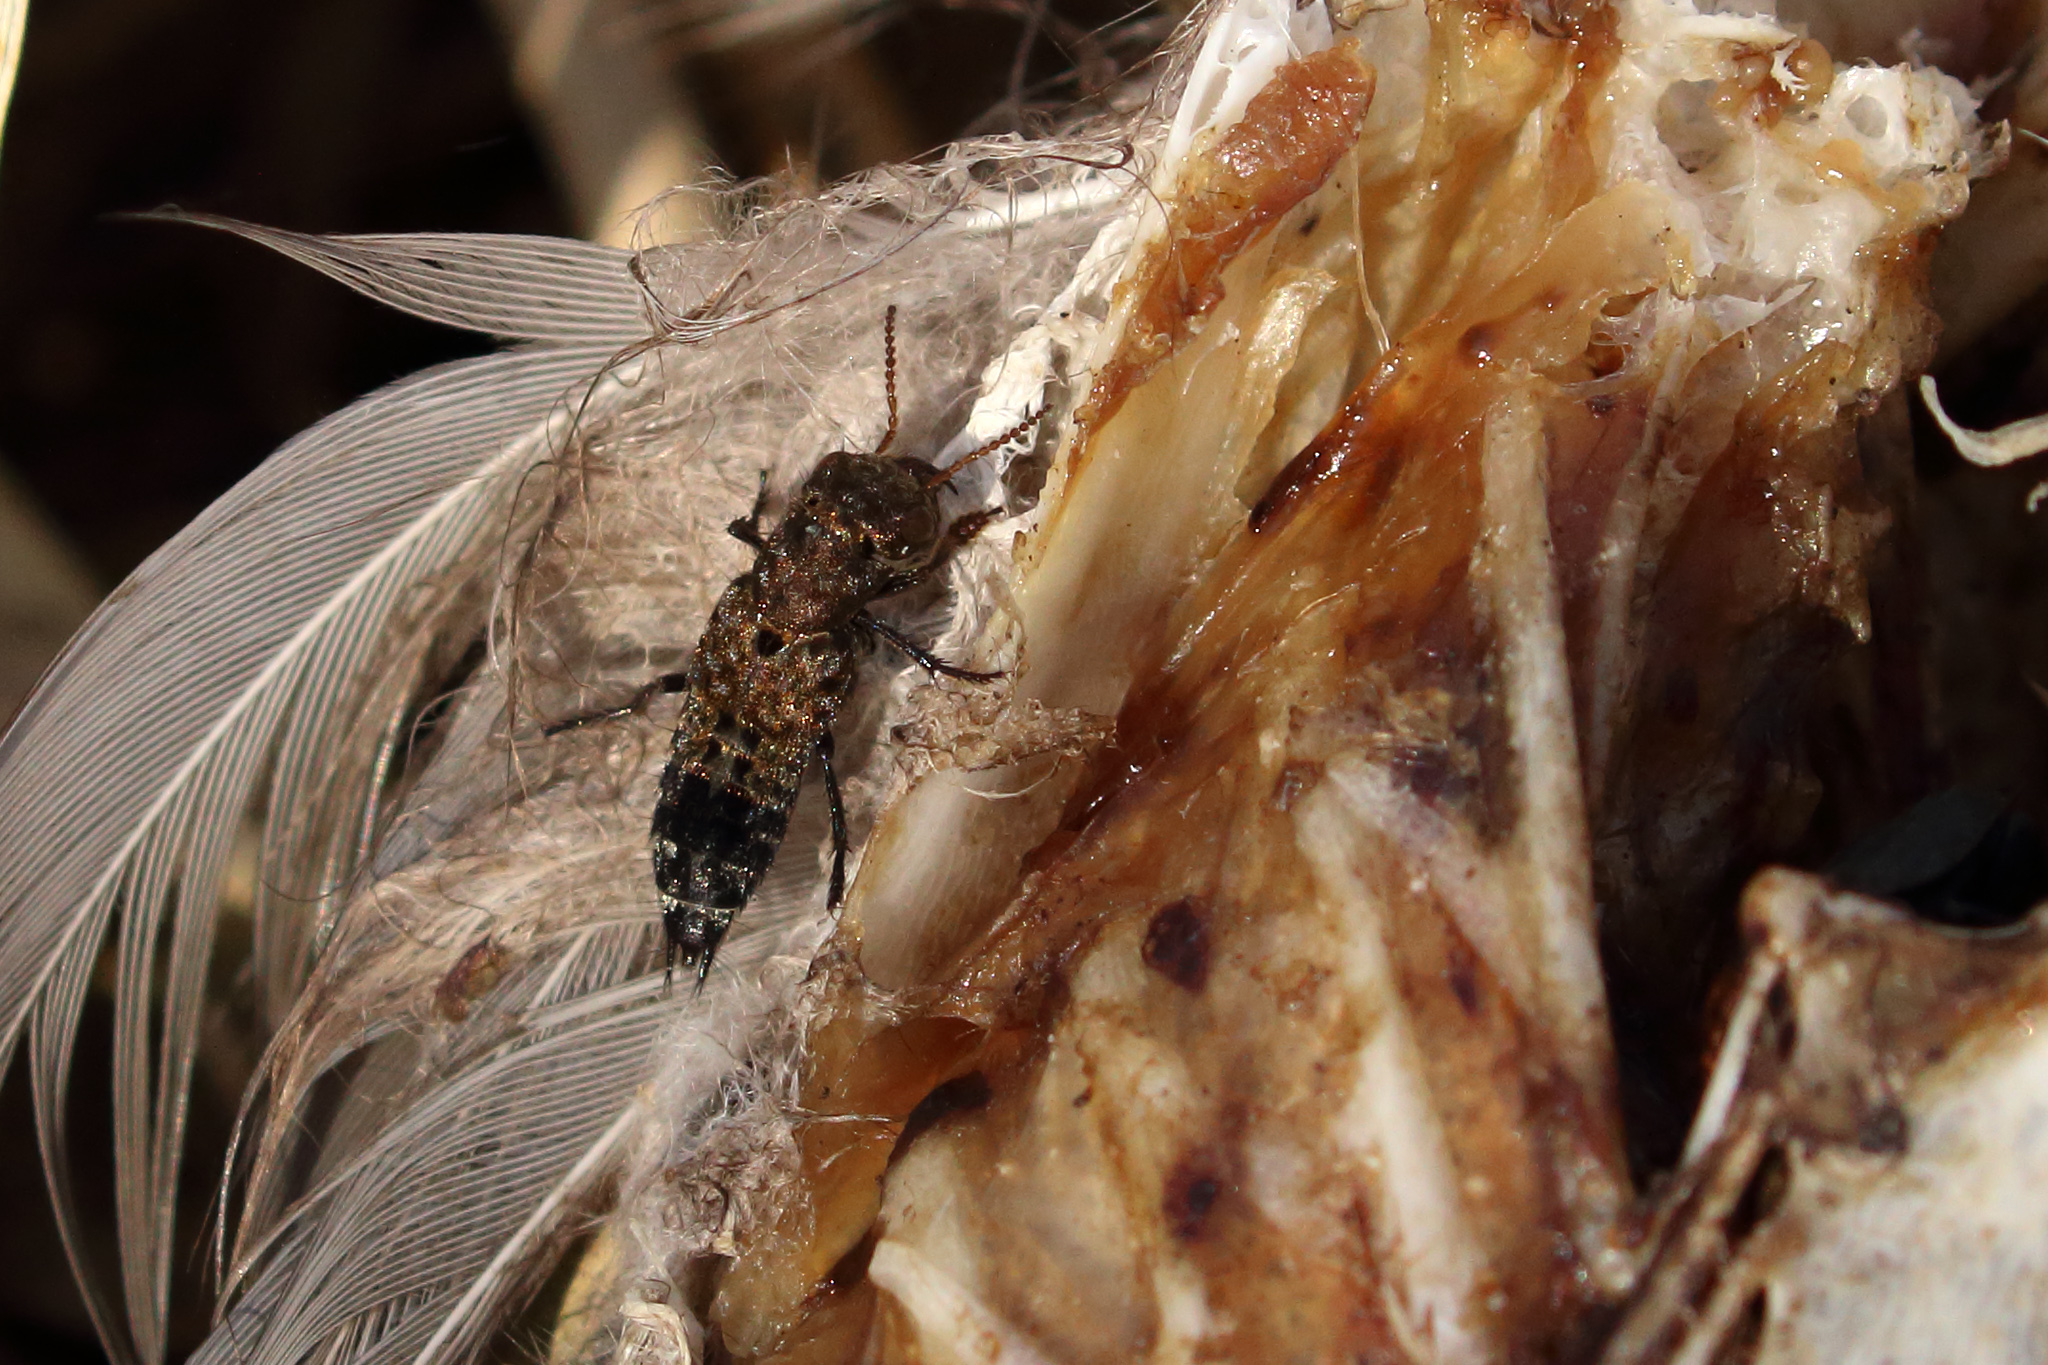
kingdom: Animalia
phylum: Arthropoda
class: Insecta
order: Coleoptera
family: Staphylinidae
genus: Ontholestes
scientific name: Ontholestes murinus
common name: Staph beetle
